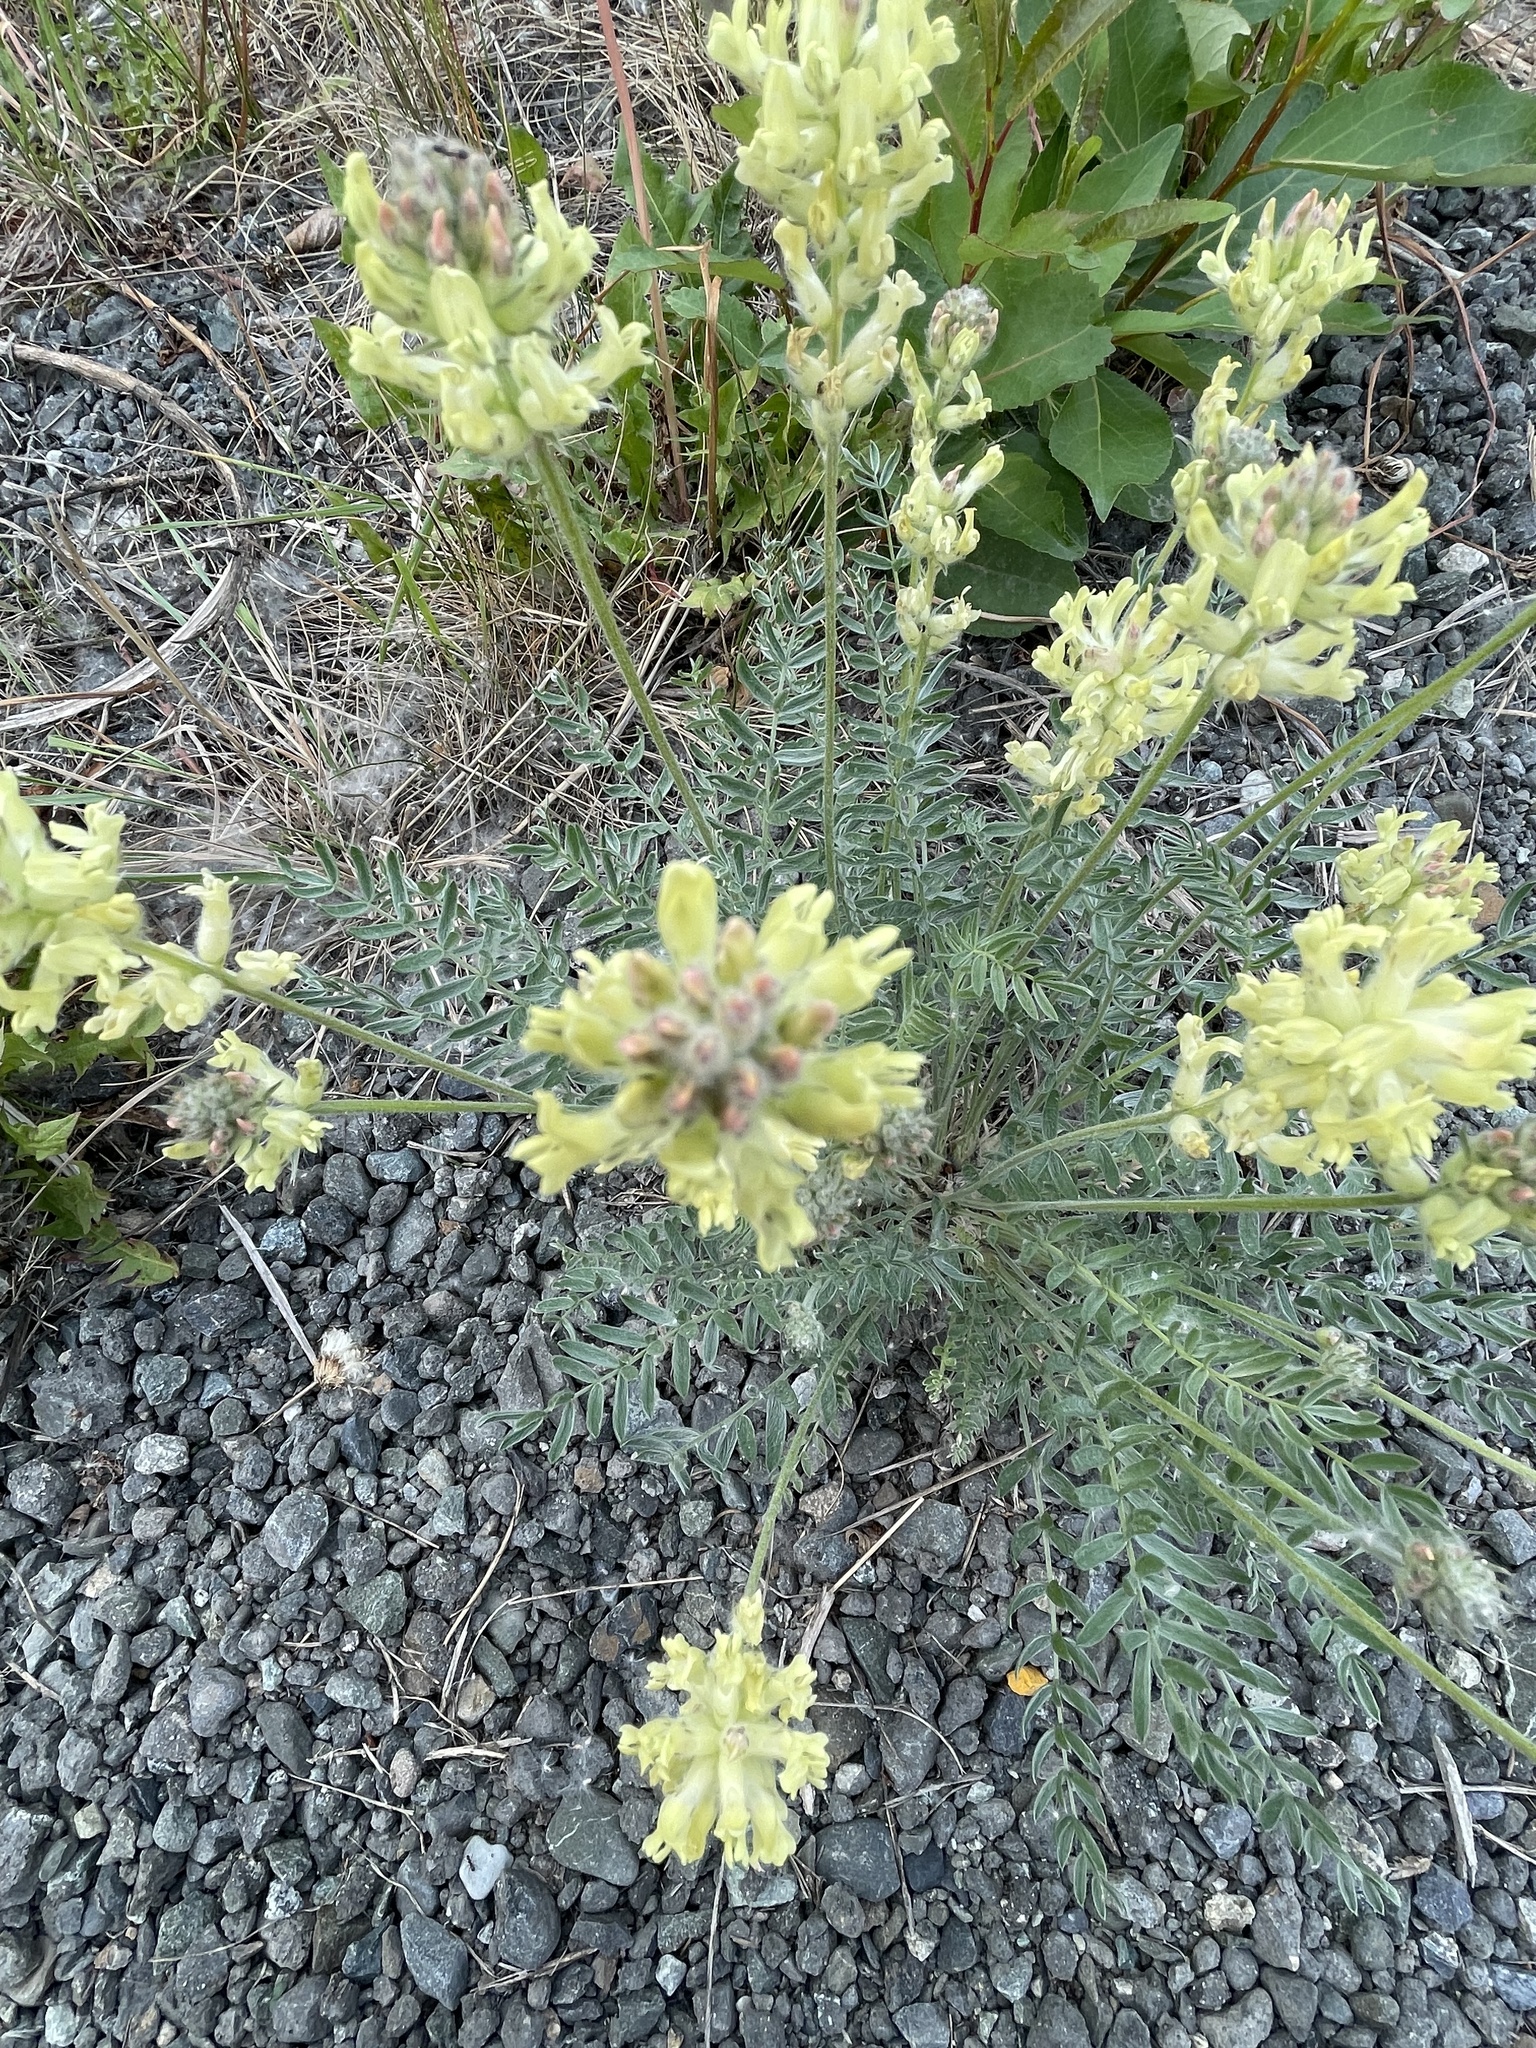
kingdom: Plantae
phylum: Tracheophyta
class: Magnoliopsida
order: Fabales
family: Fabaceae
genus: Oxytropis
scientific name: Oxytropis campestris
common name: Field locoweed
